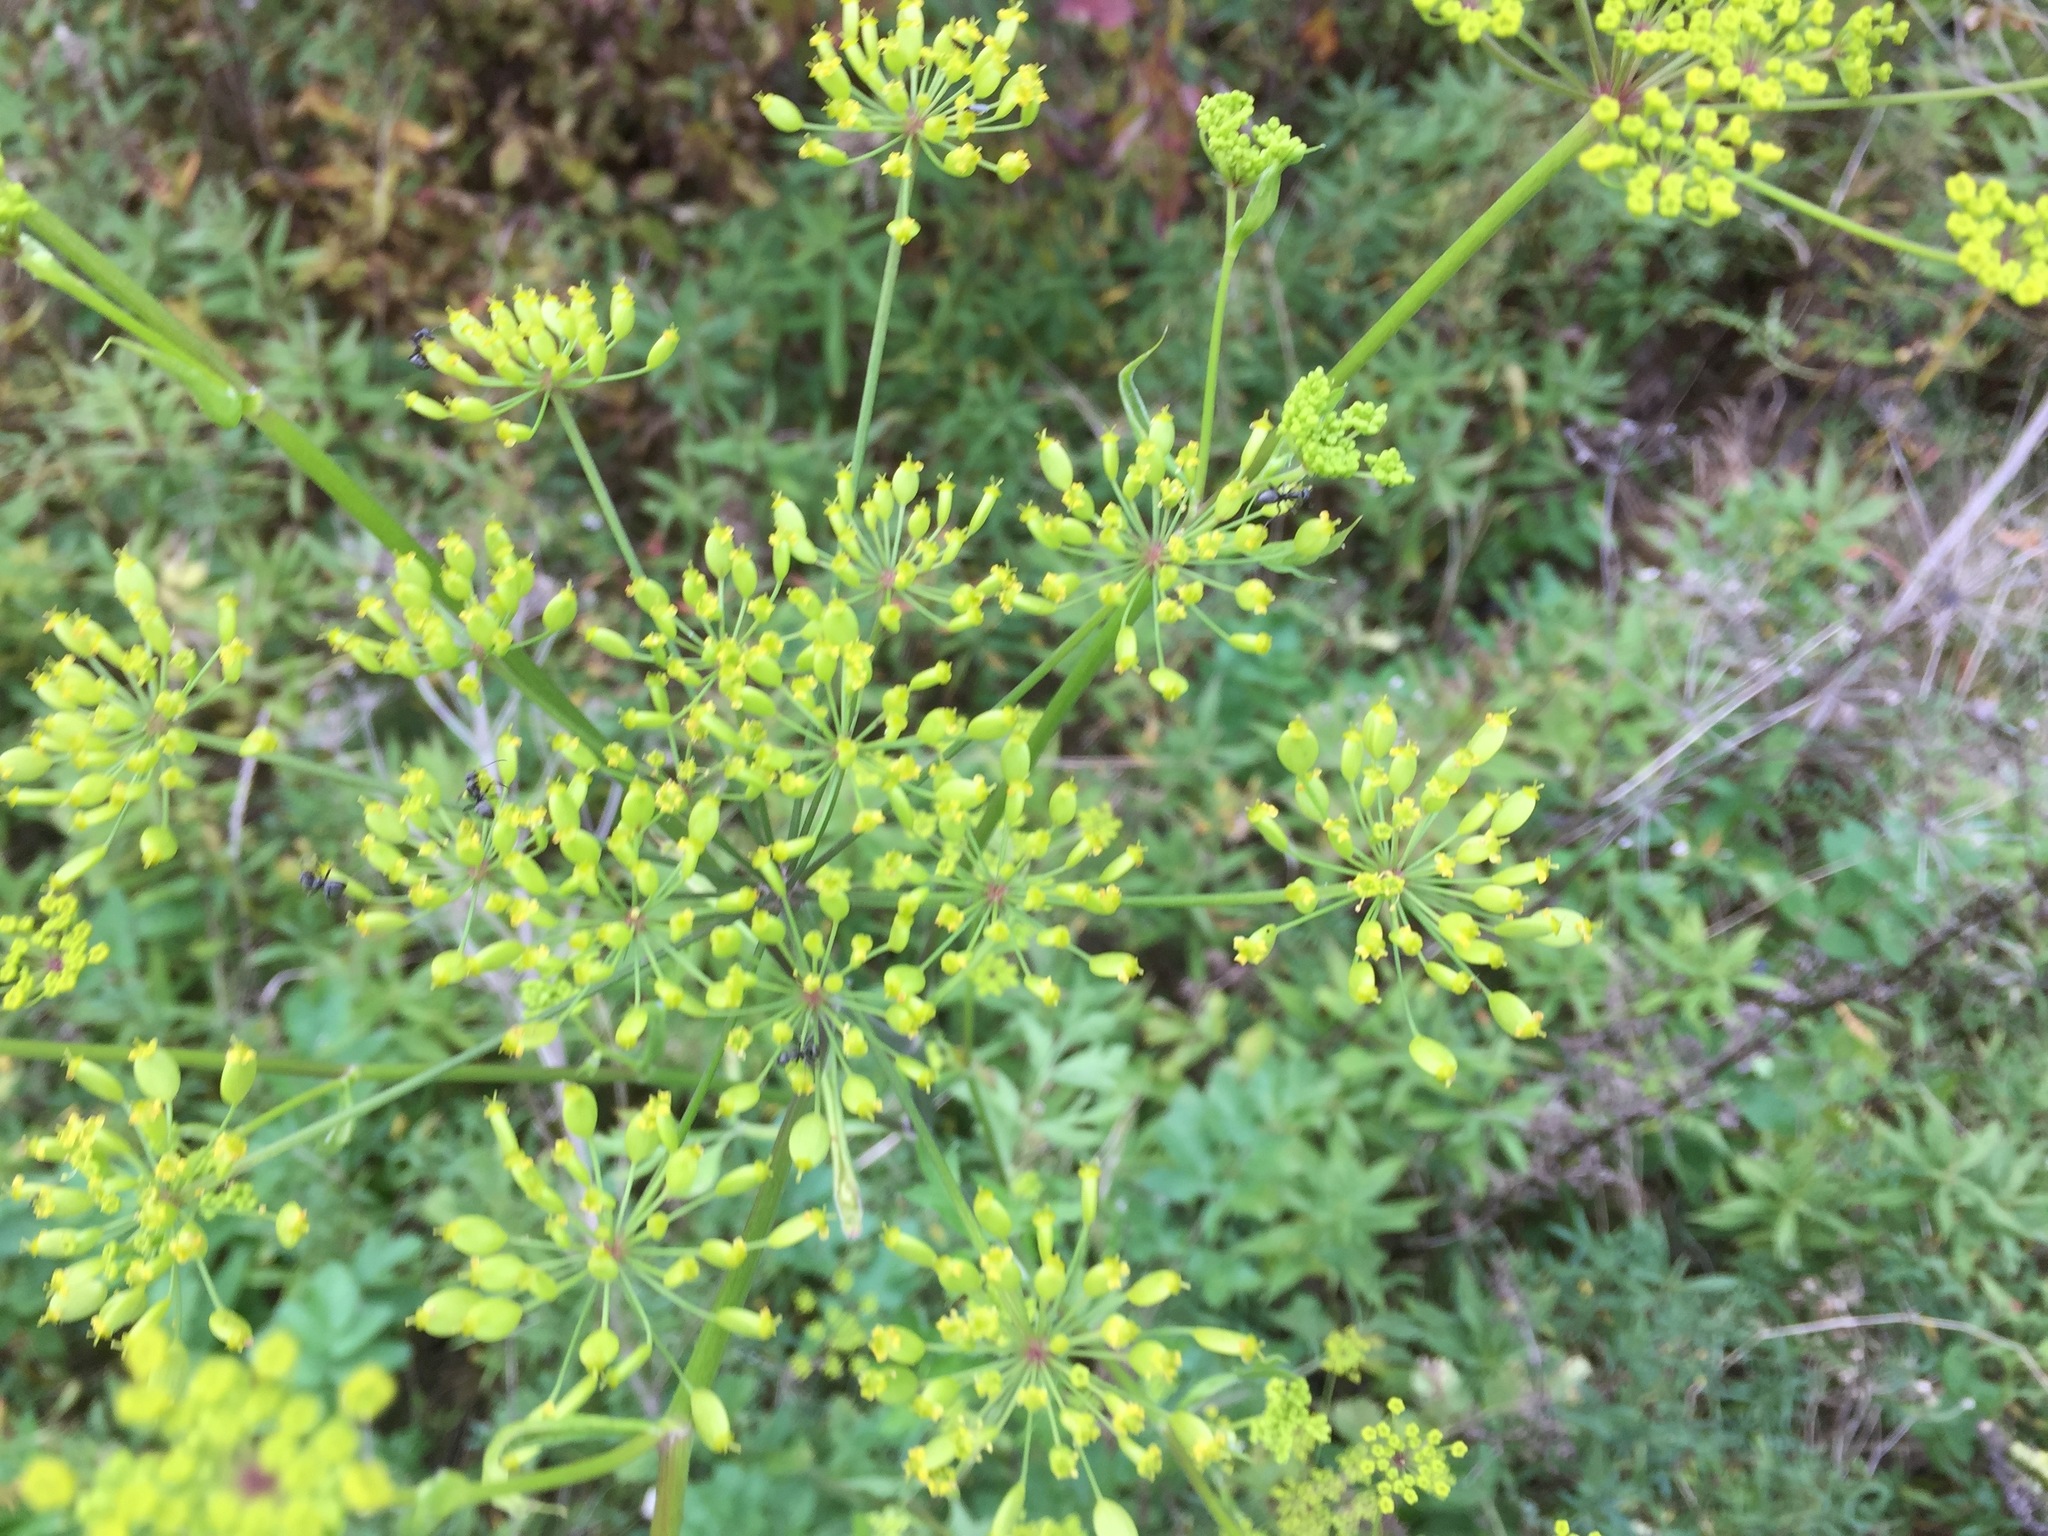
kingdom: Plantae
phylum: Tracheophyta
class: Magnoliopsida
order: Apiales
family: Apiaceae
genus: Pastinaca
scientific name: Pastinaca sativa
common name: Wild parsnip
